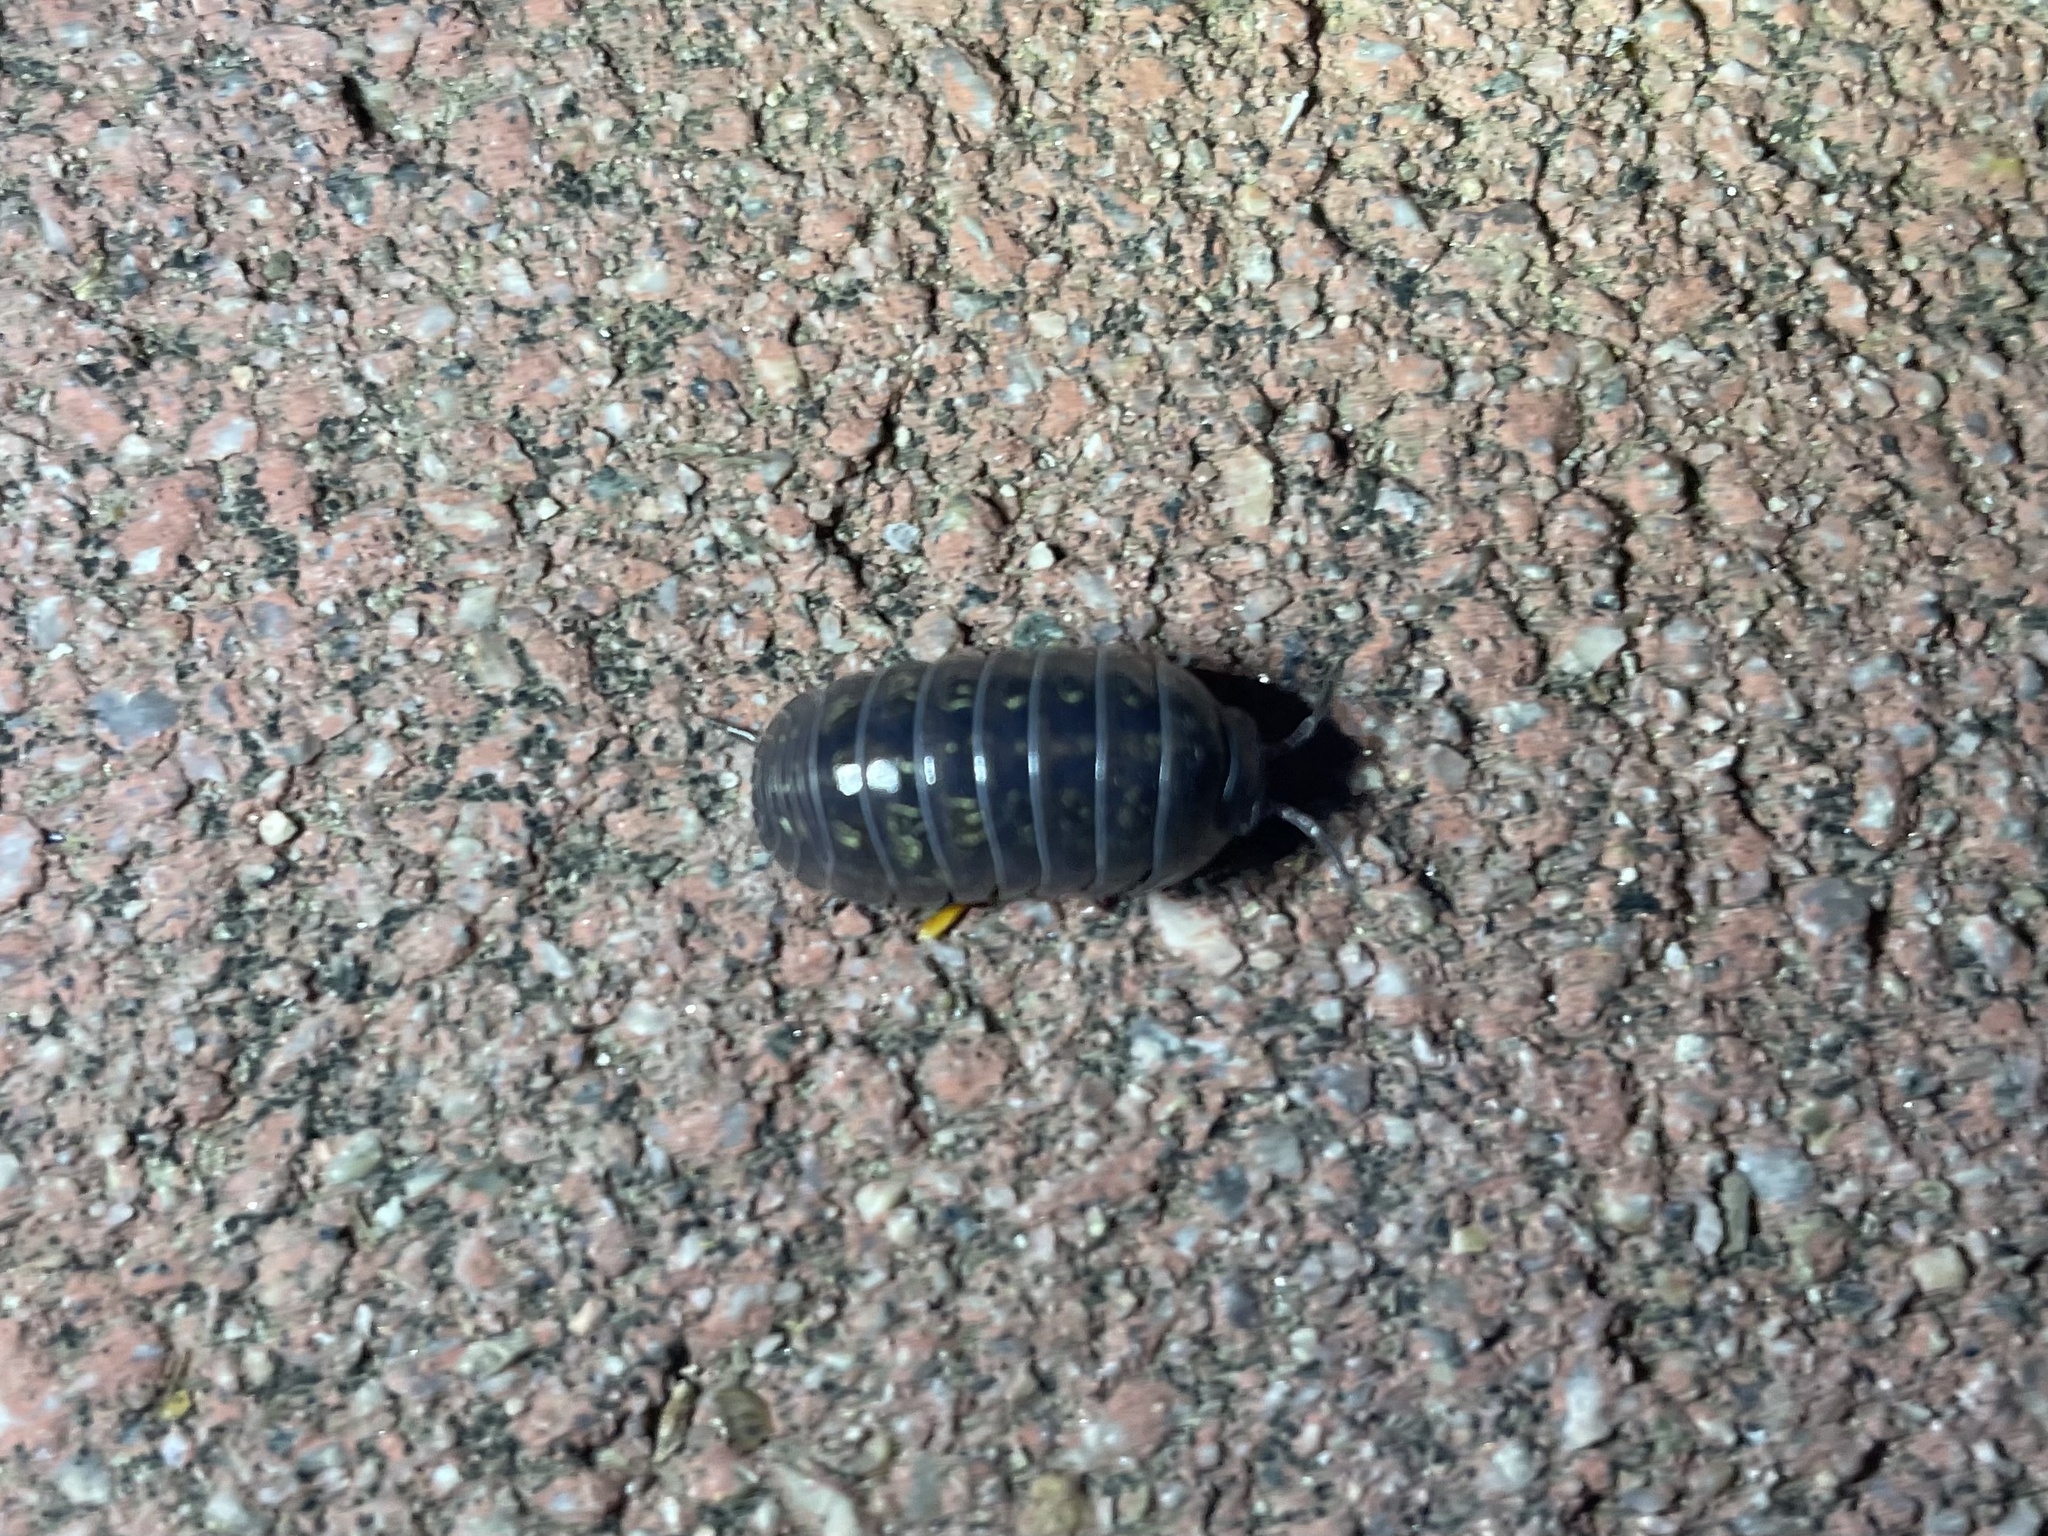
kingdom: Animalia
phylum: Arthropoda
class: Malacostraca
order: Isopoda
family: Armadillidiidae
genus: Armadillidium
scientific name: Armadillidium vulgare
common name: Common pill woodlouse
